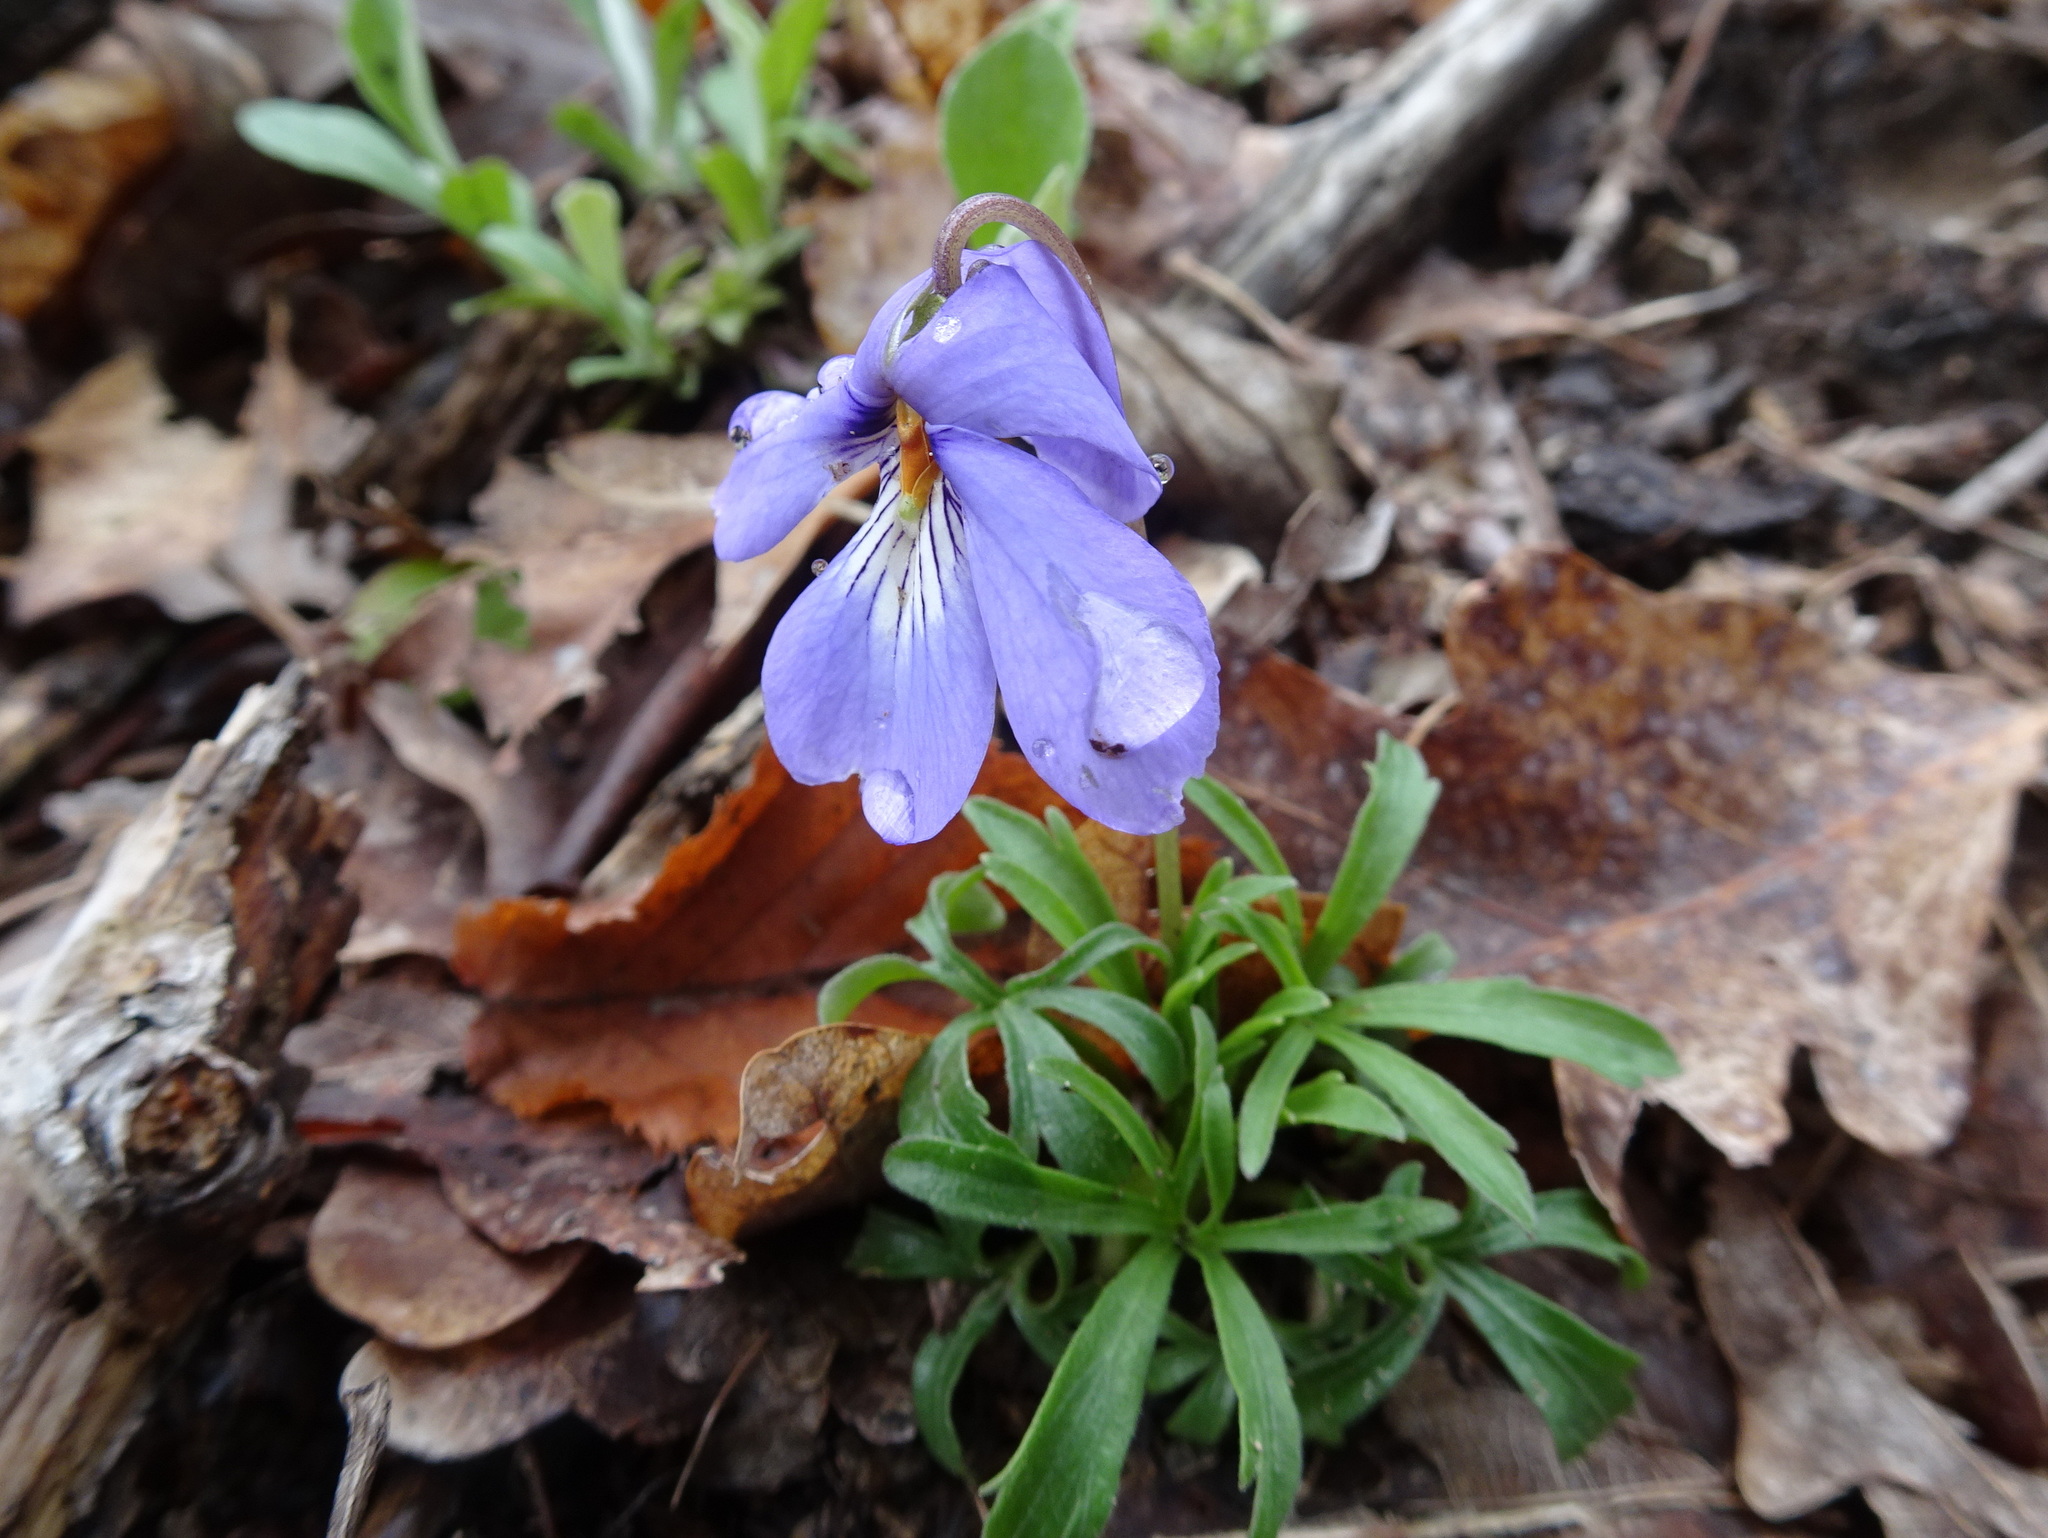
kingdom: Plantae
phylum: Tracheophyta
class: Magnoliopsida
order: Malpighiales
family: Violaceae
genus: Viola
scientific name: Viola pedata
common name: Pansy violet
